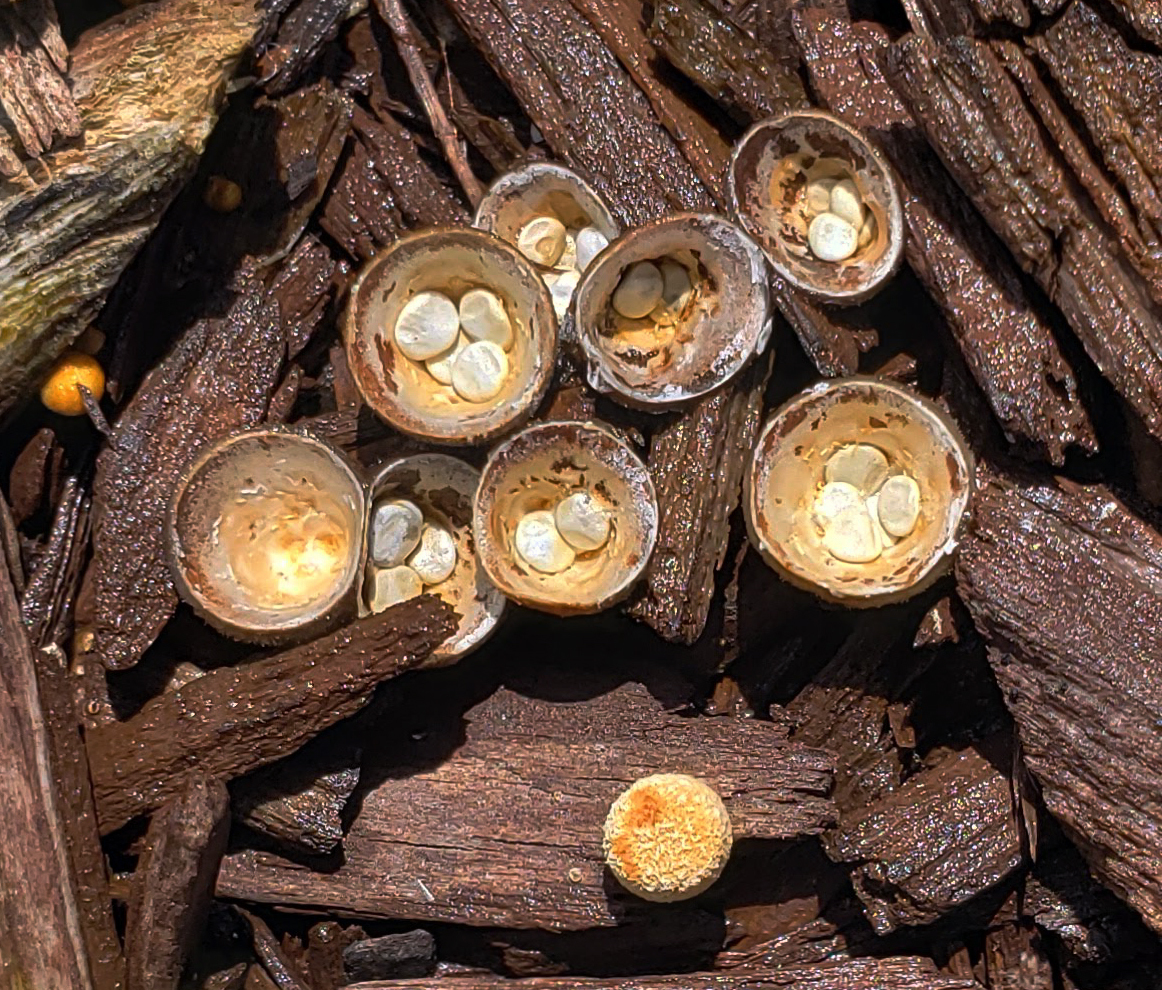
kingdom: Fungi
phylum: Basidiomycota
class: Agaricomycetes
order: Agaricales
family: Nidulariaceae
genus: Crucibulum
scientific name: Crucibulum laeve
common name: Common bird's nest
